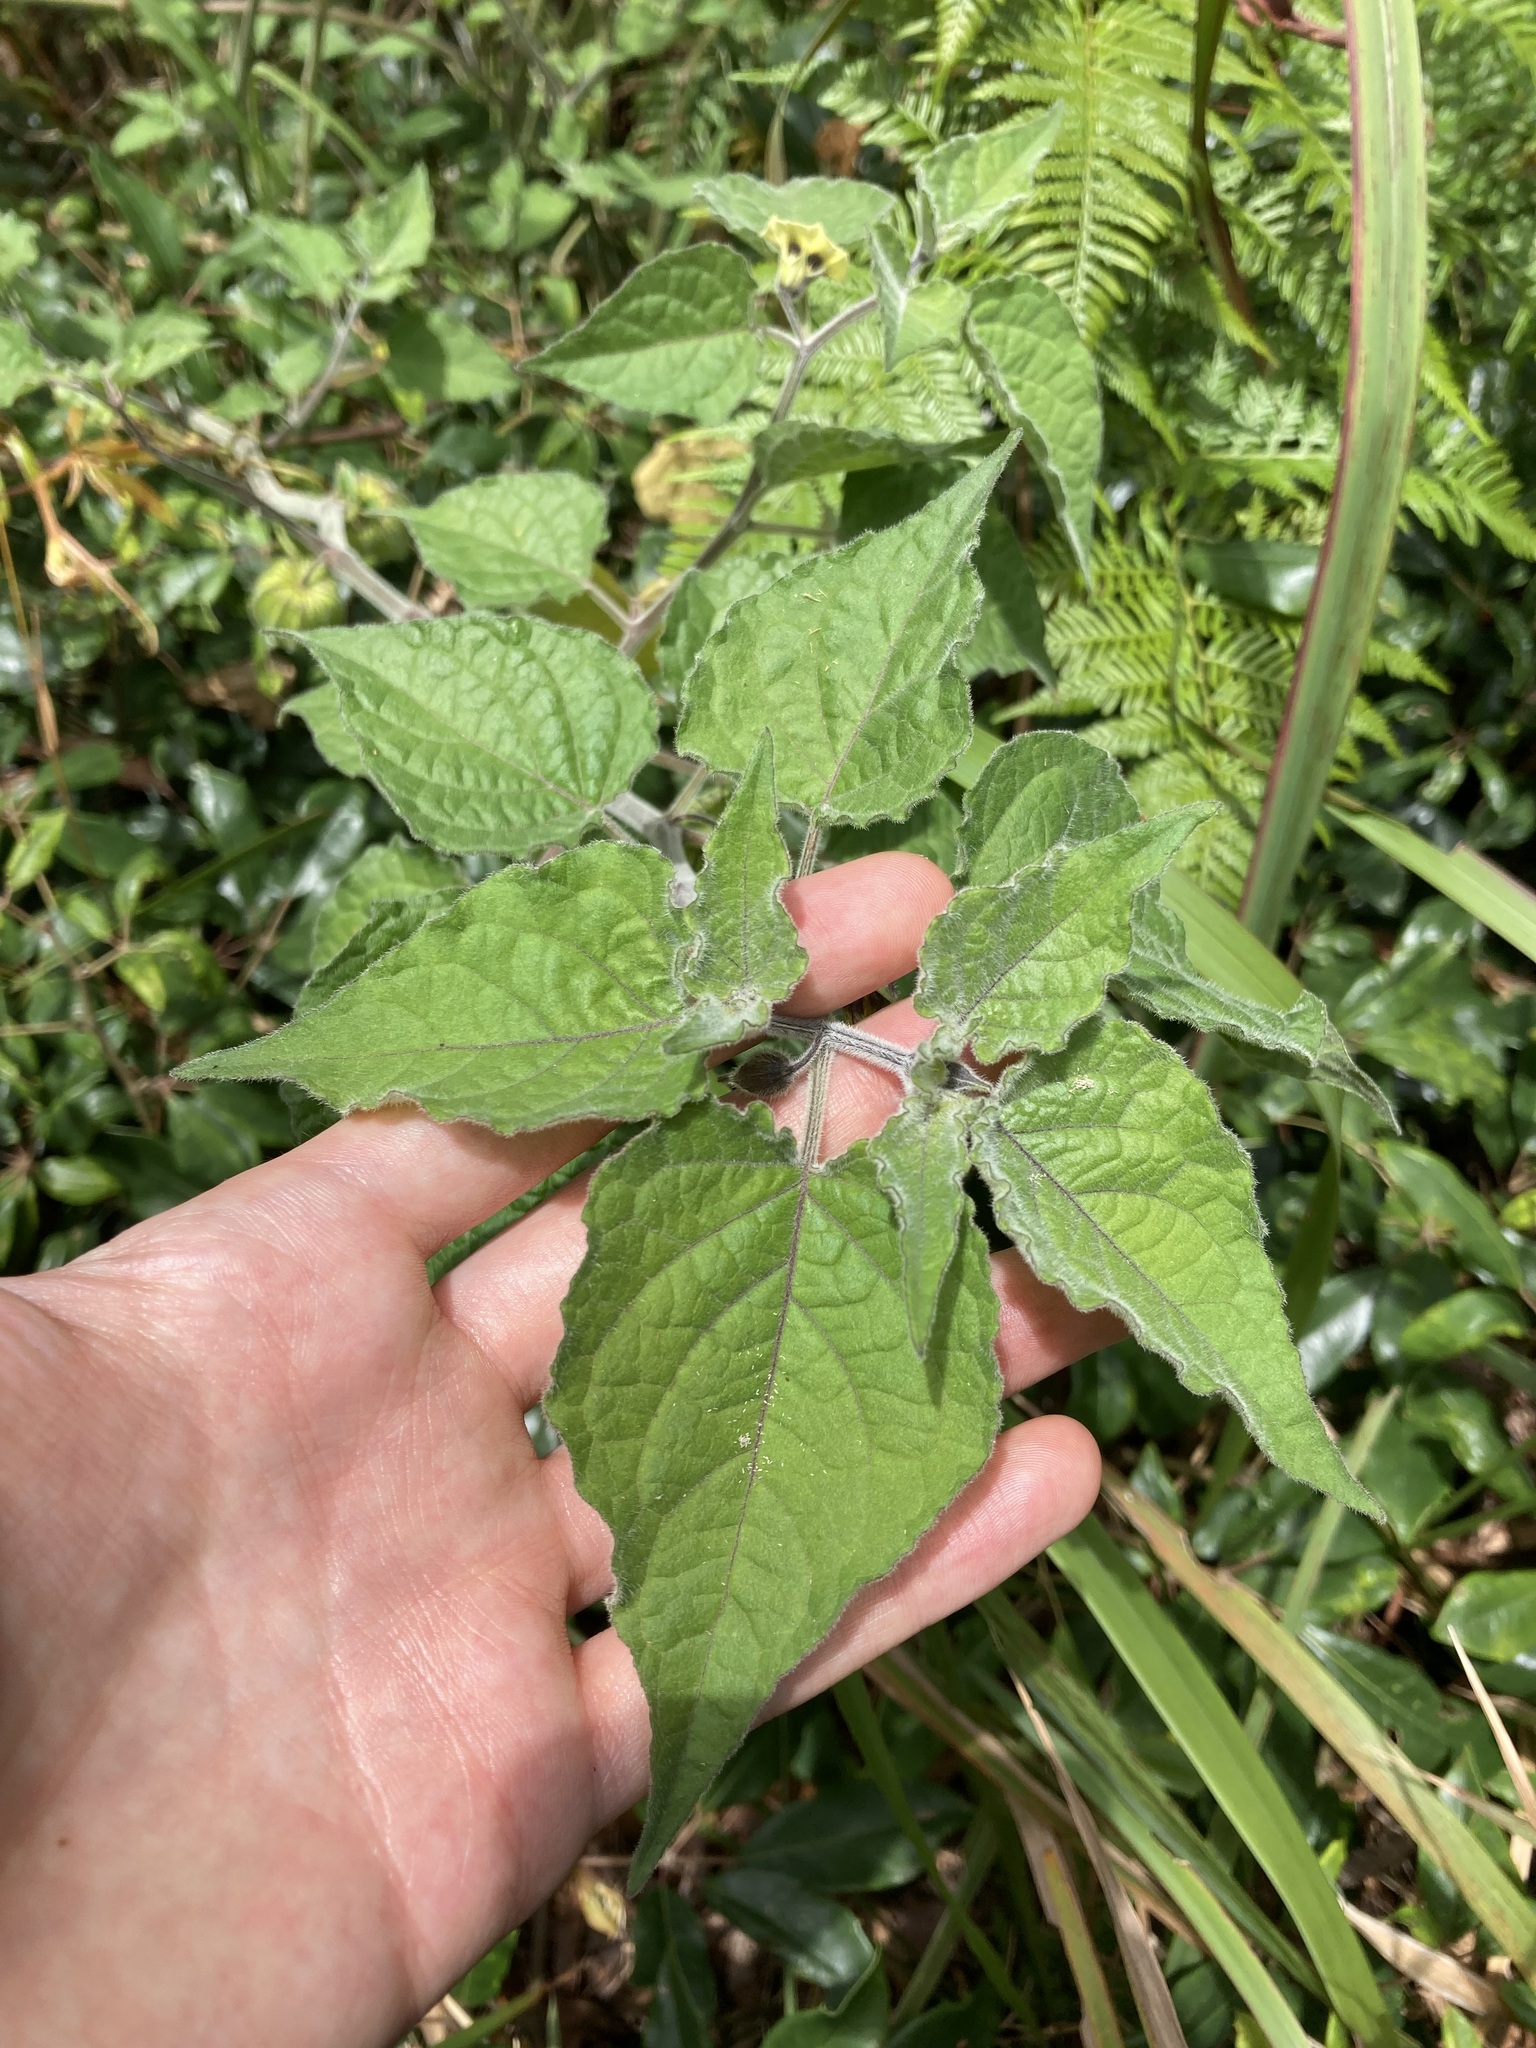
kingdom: Plantae
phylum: Tracheophyta
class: Magnoliopsida
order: Solanales
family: Solanaceae
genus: Physalis
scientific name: Physalis peruviana
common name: Cape-gooseberry
